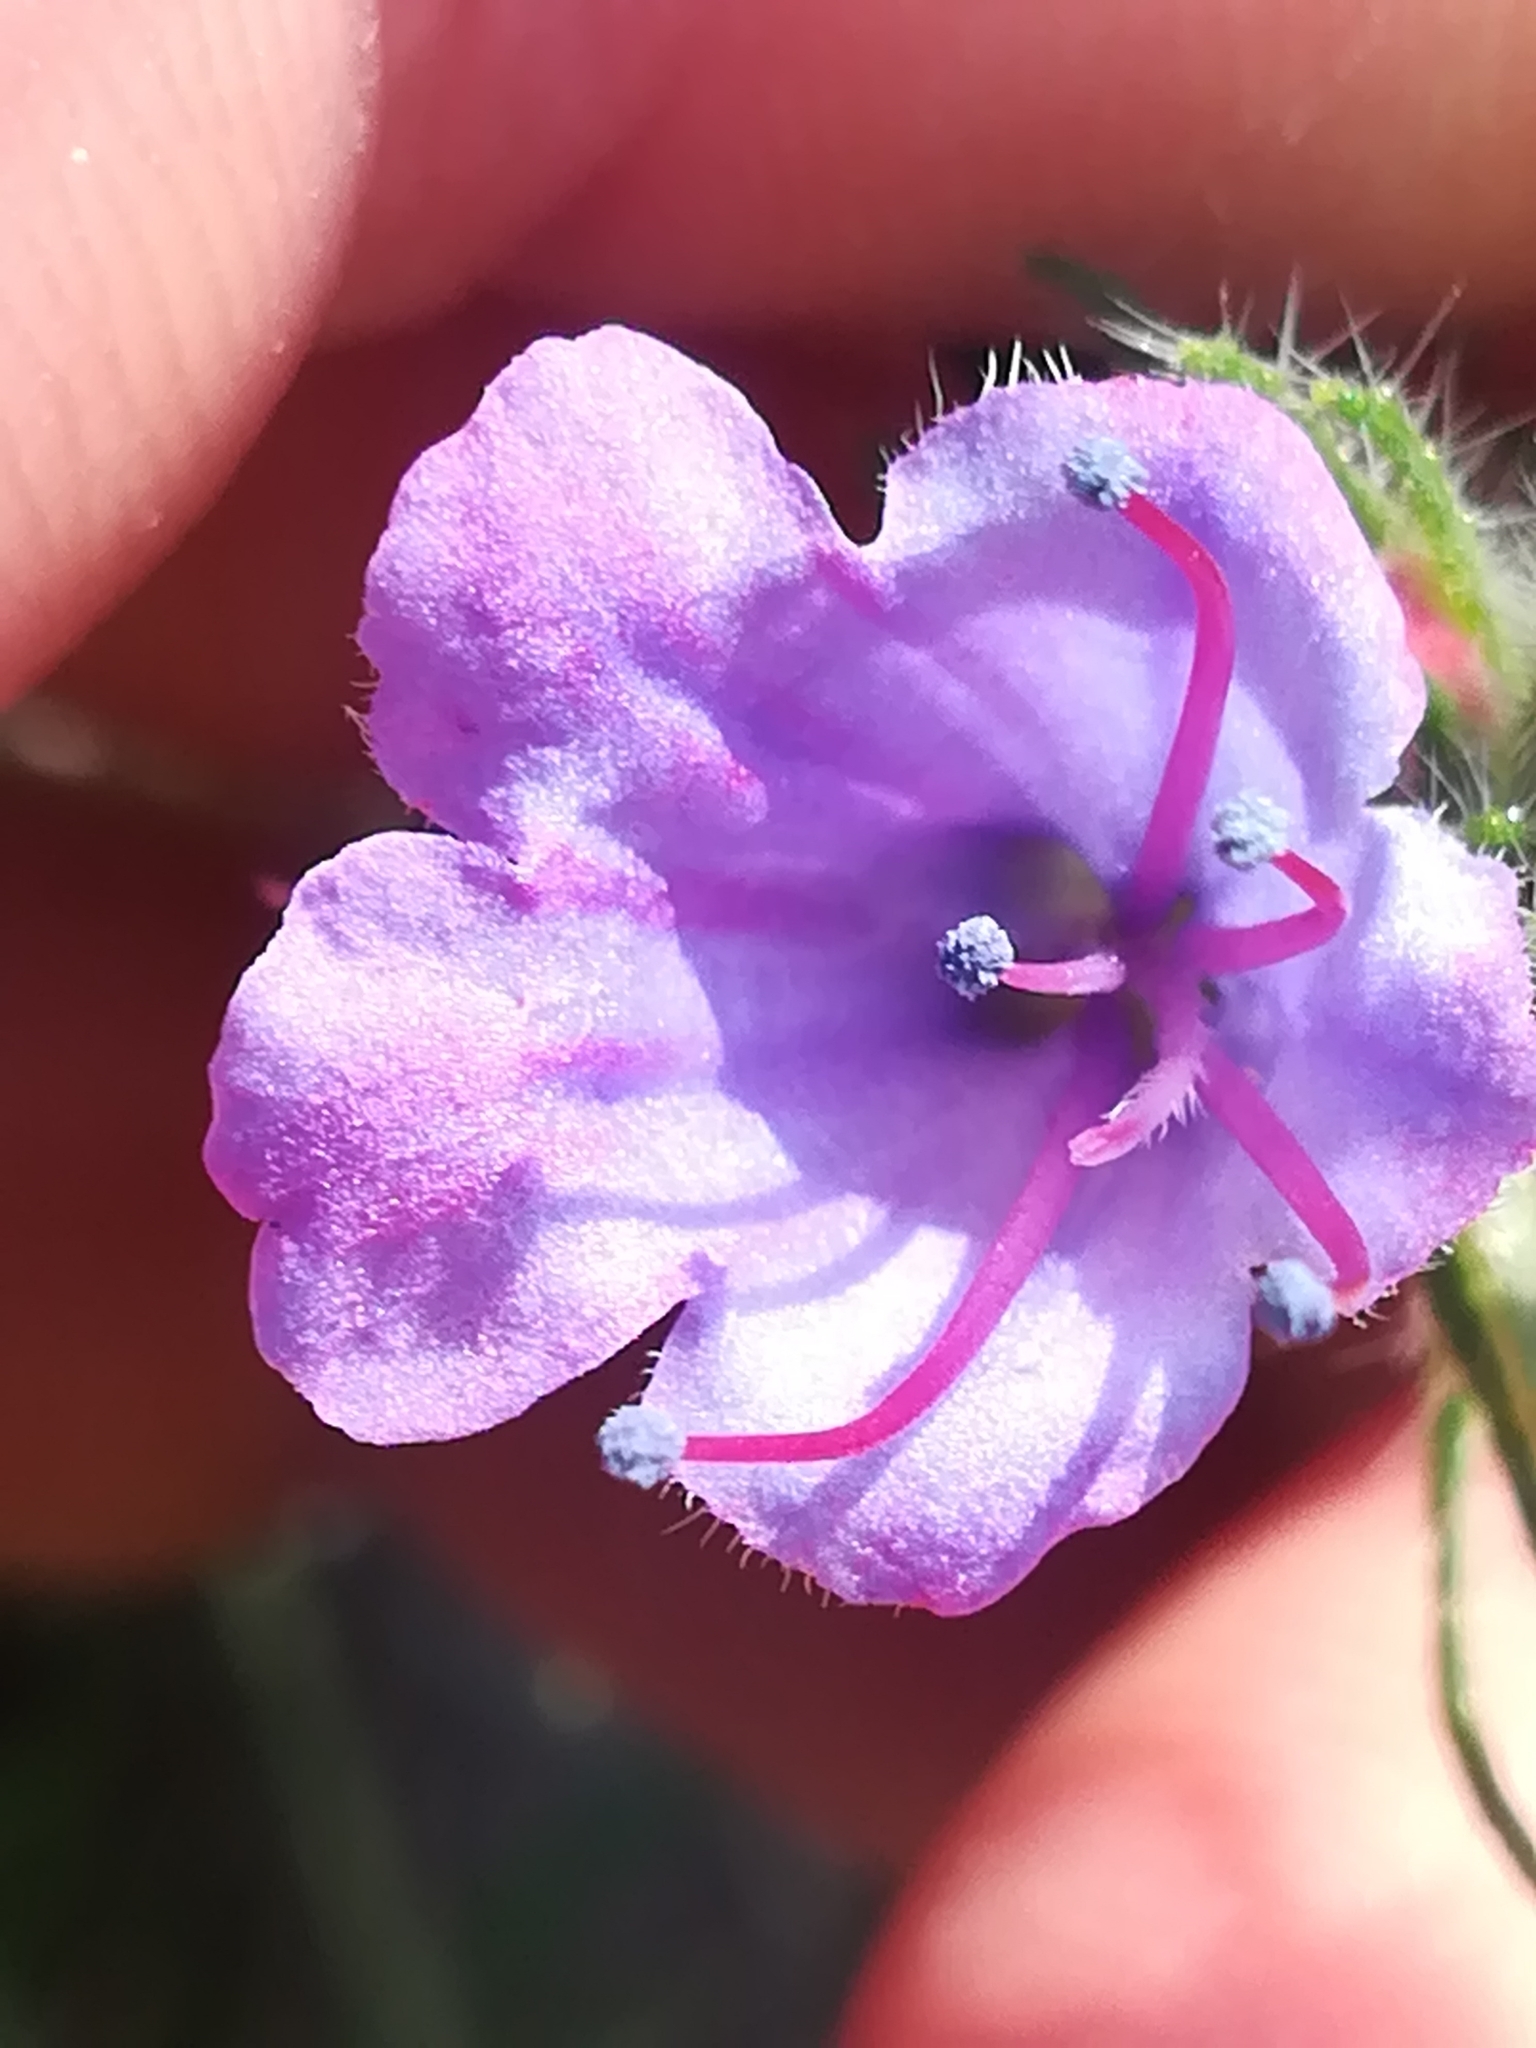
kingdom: Plantae
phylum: Tracheophyta
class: Magnoliopsida
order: Boraginales
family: Boraginaceae
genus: Echium
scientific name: Echium vulgare
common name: Common viper's bugloss
